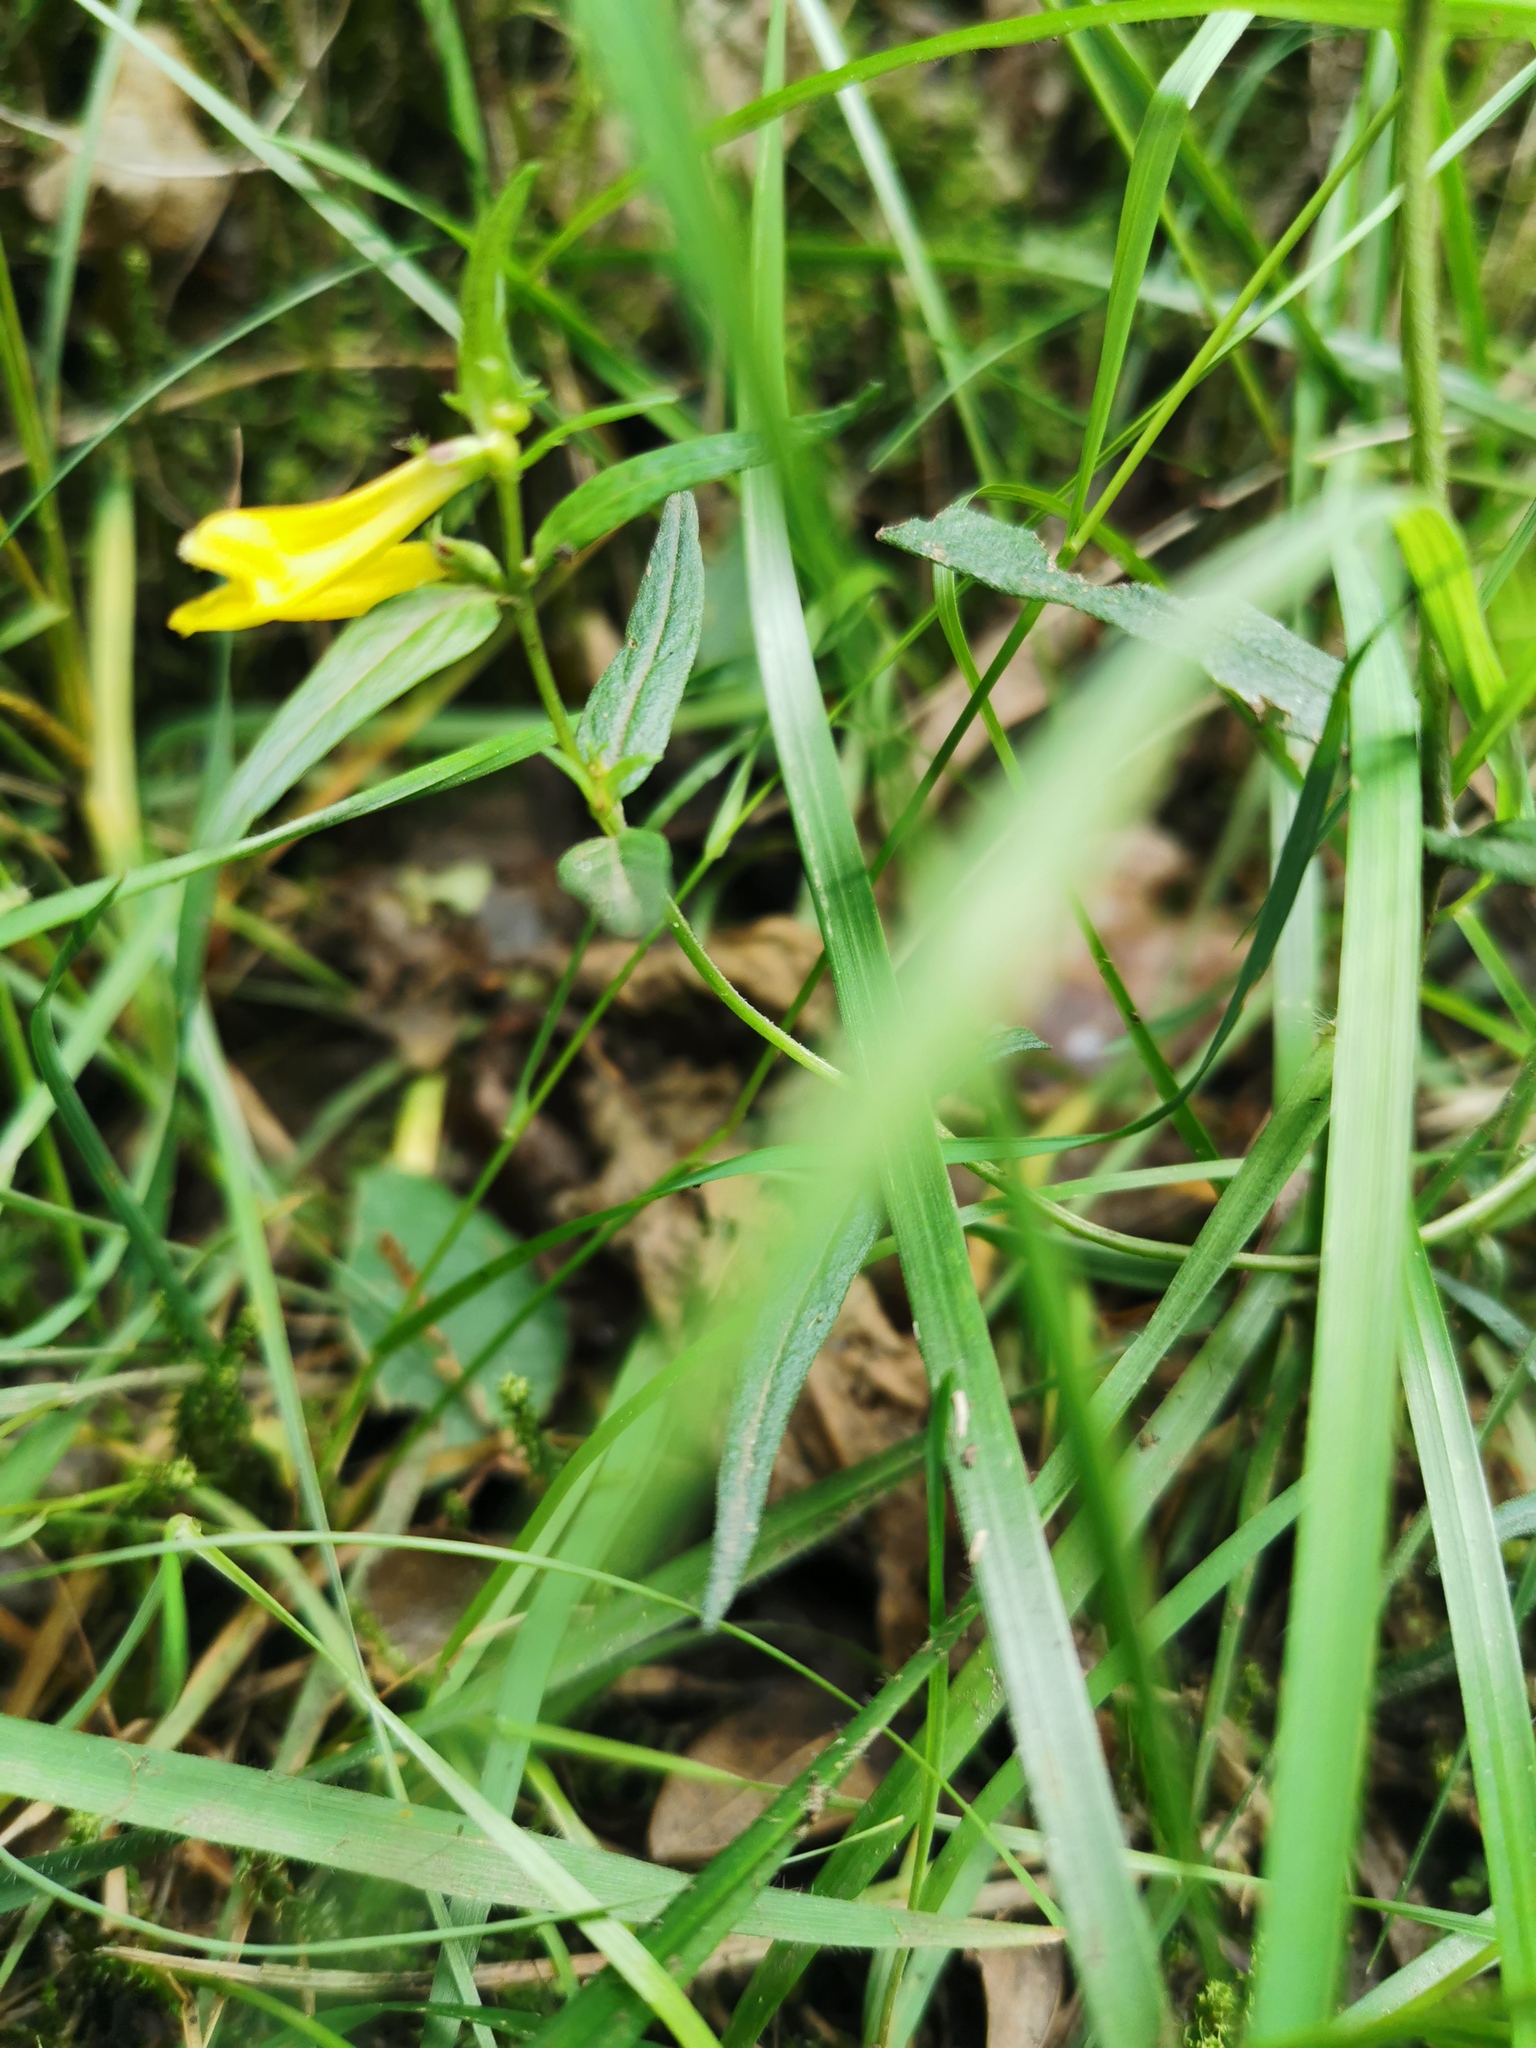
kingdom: Plantae
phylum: Tracheophyta
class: Magnoliopsida
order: Lamiales
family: Orobanchaceae
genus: Melampyrum
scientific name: Melampyrum pratense
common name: Common cow-wheat
